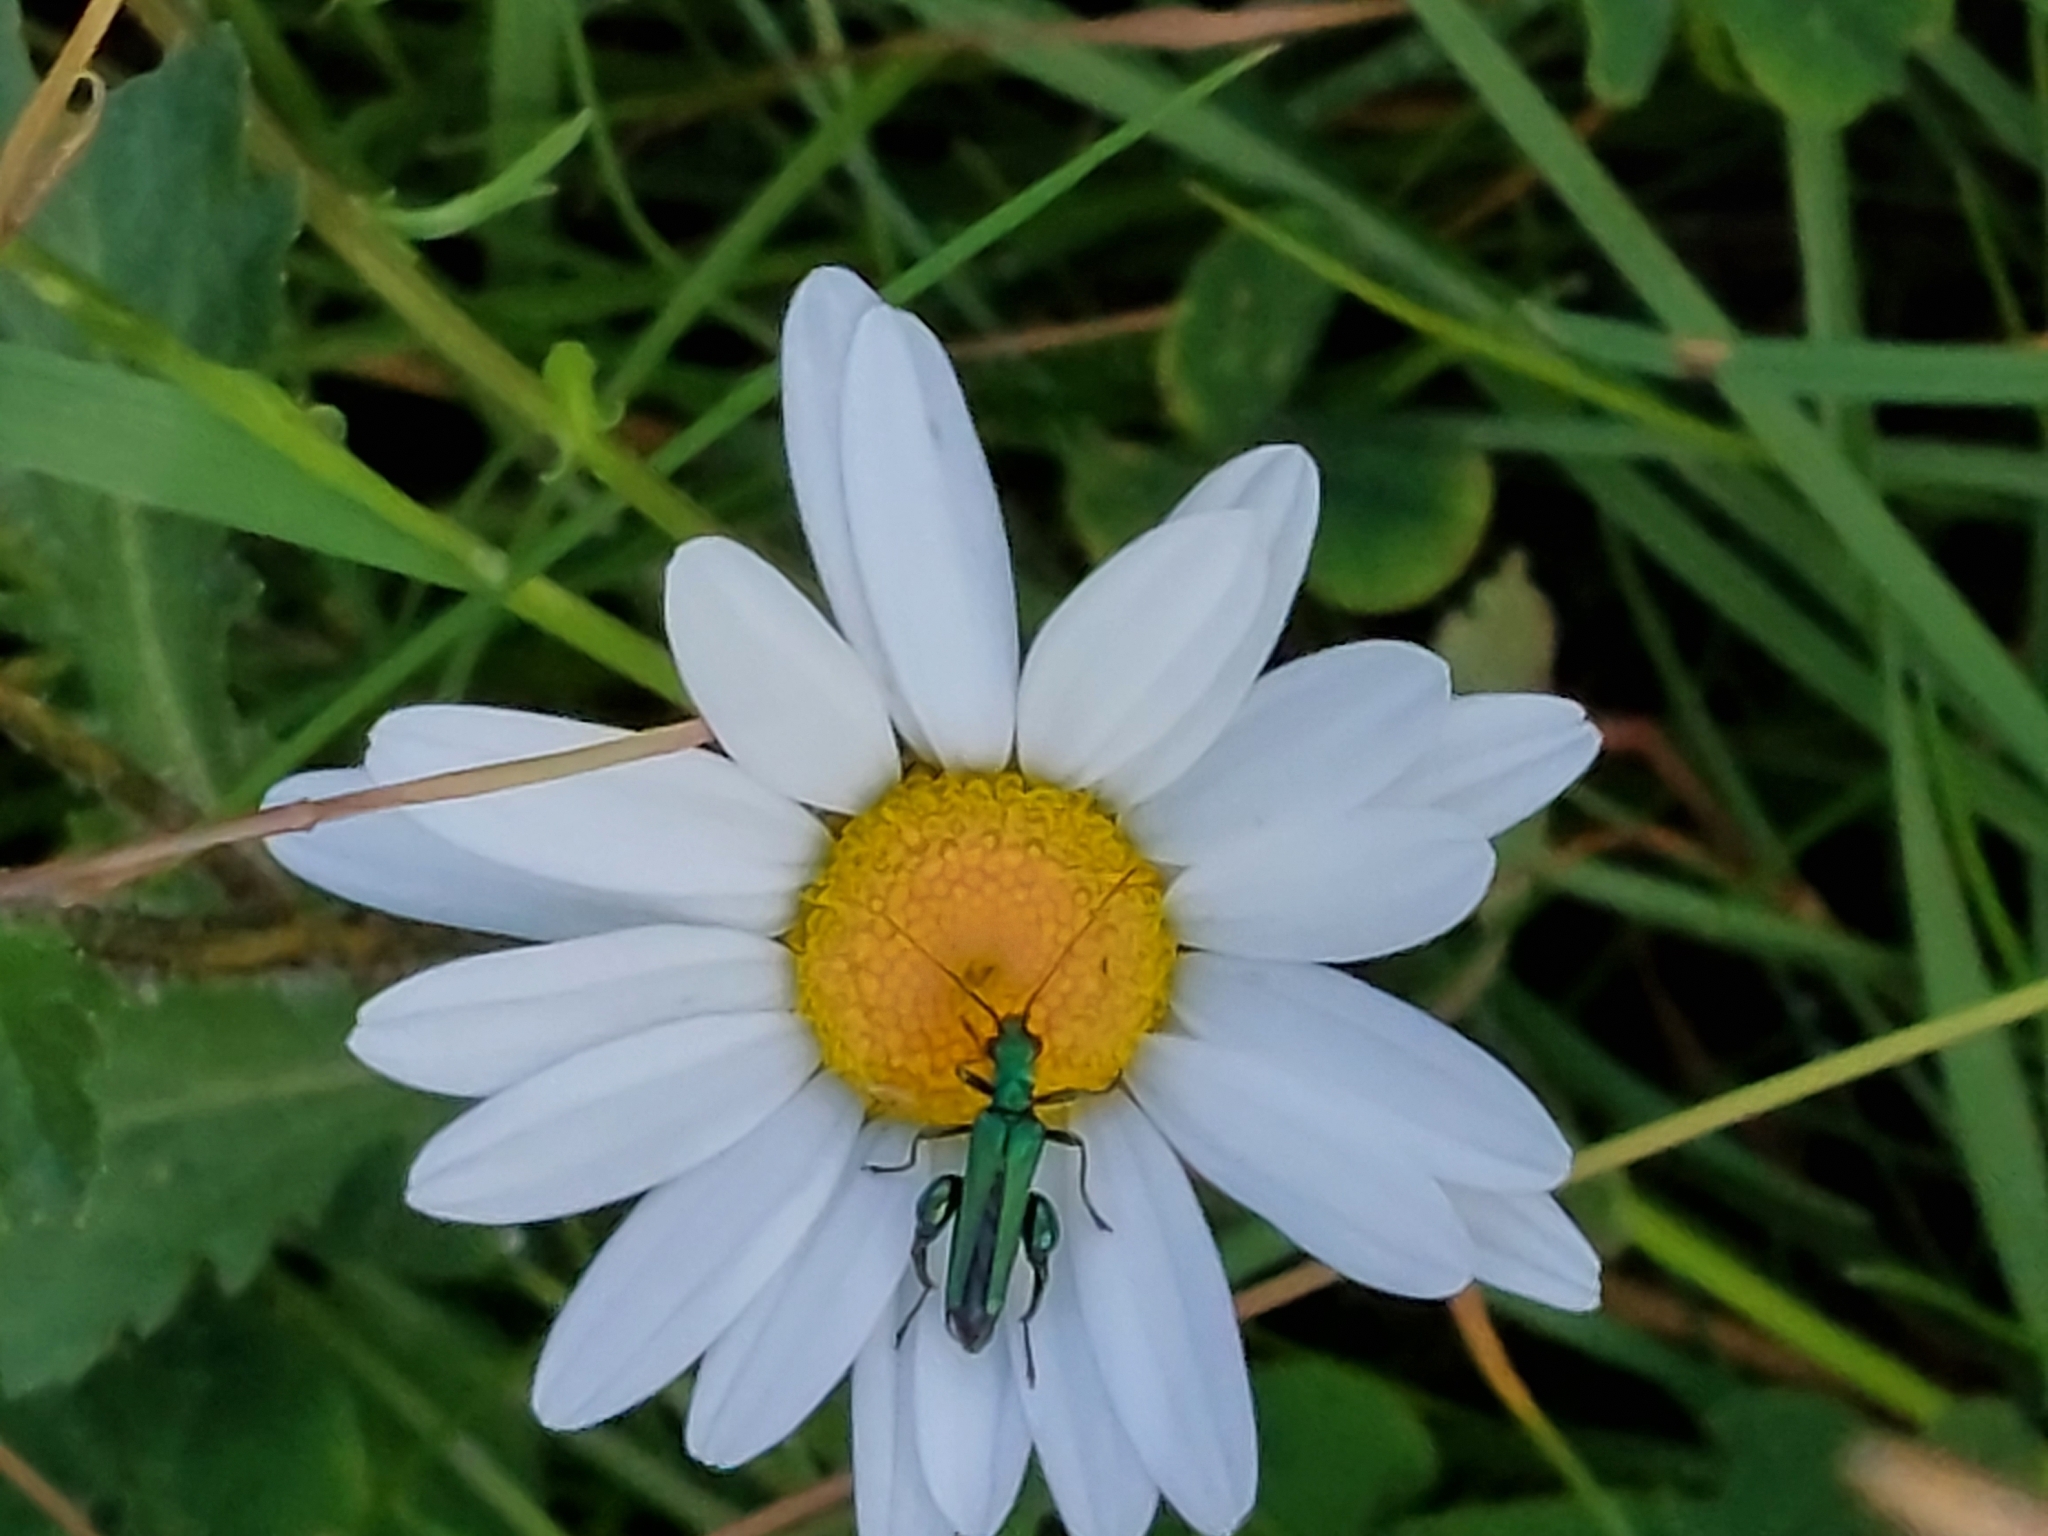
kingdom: Animalia
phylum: Arthropoda
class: Insecta
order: Coleoptera
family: Oedemeridae
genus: Oedemera
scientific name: Oedemera nobilis
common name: Swollen-thighed beetle
